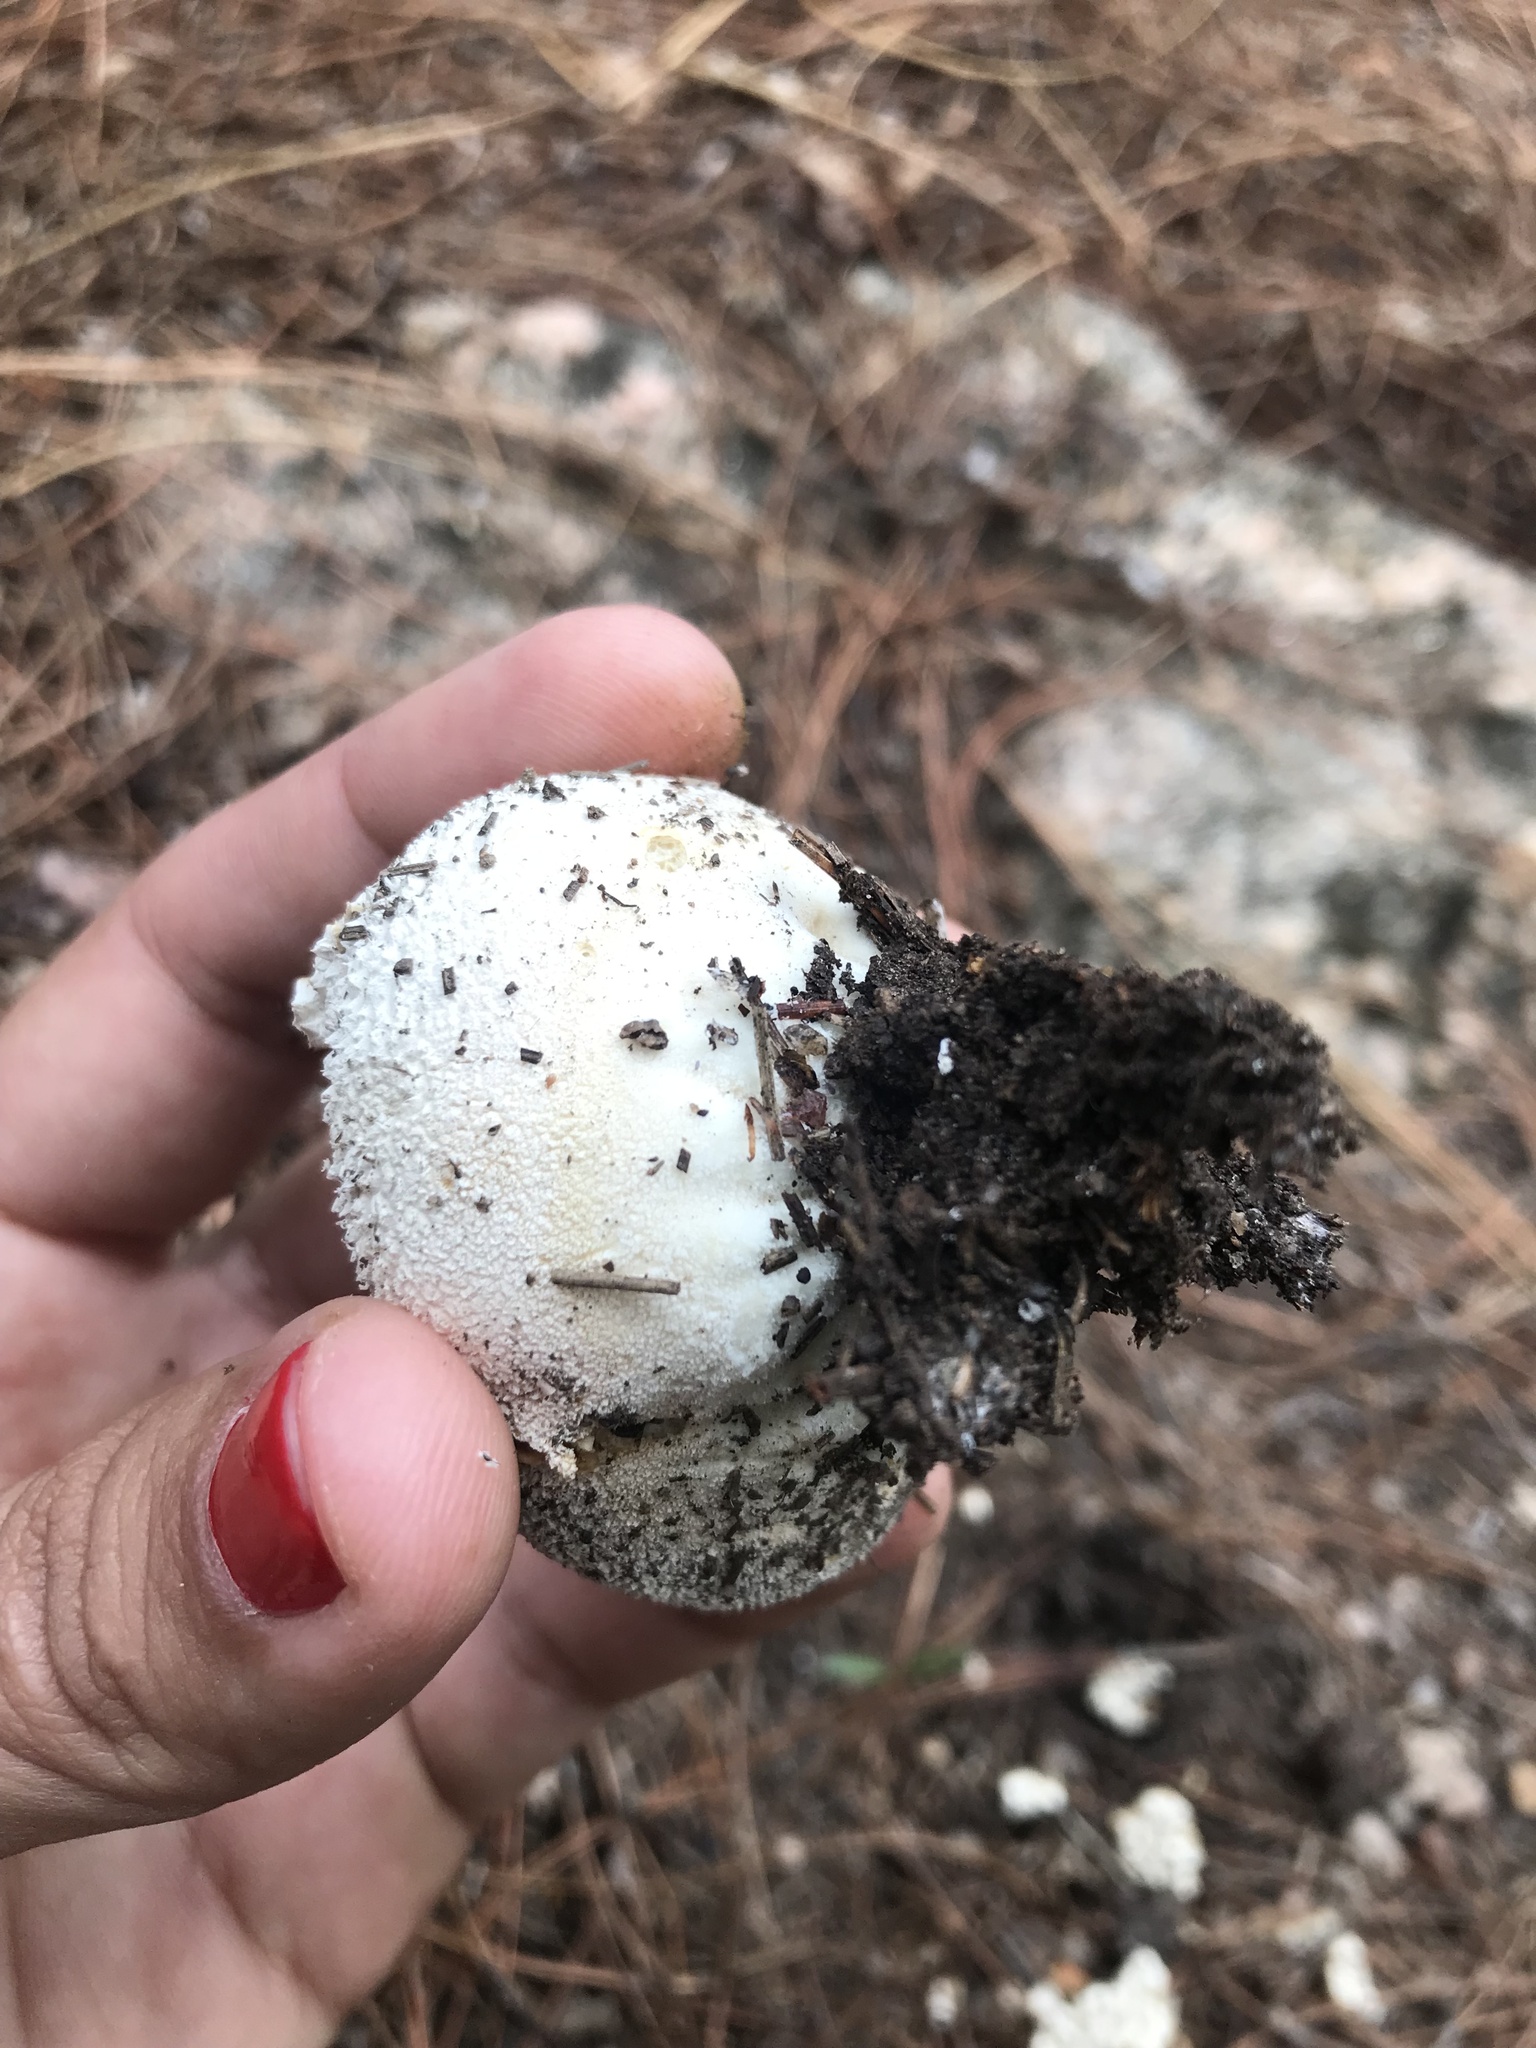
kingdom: Fungi
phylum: Basidiomycota
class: Agaricomycetes
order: Agaricales
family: Agaricaceae
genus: Lycoperdon
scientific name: Lycoperdon marginatum
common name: Peeling puffball
